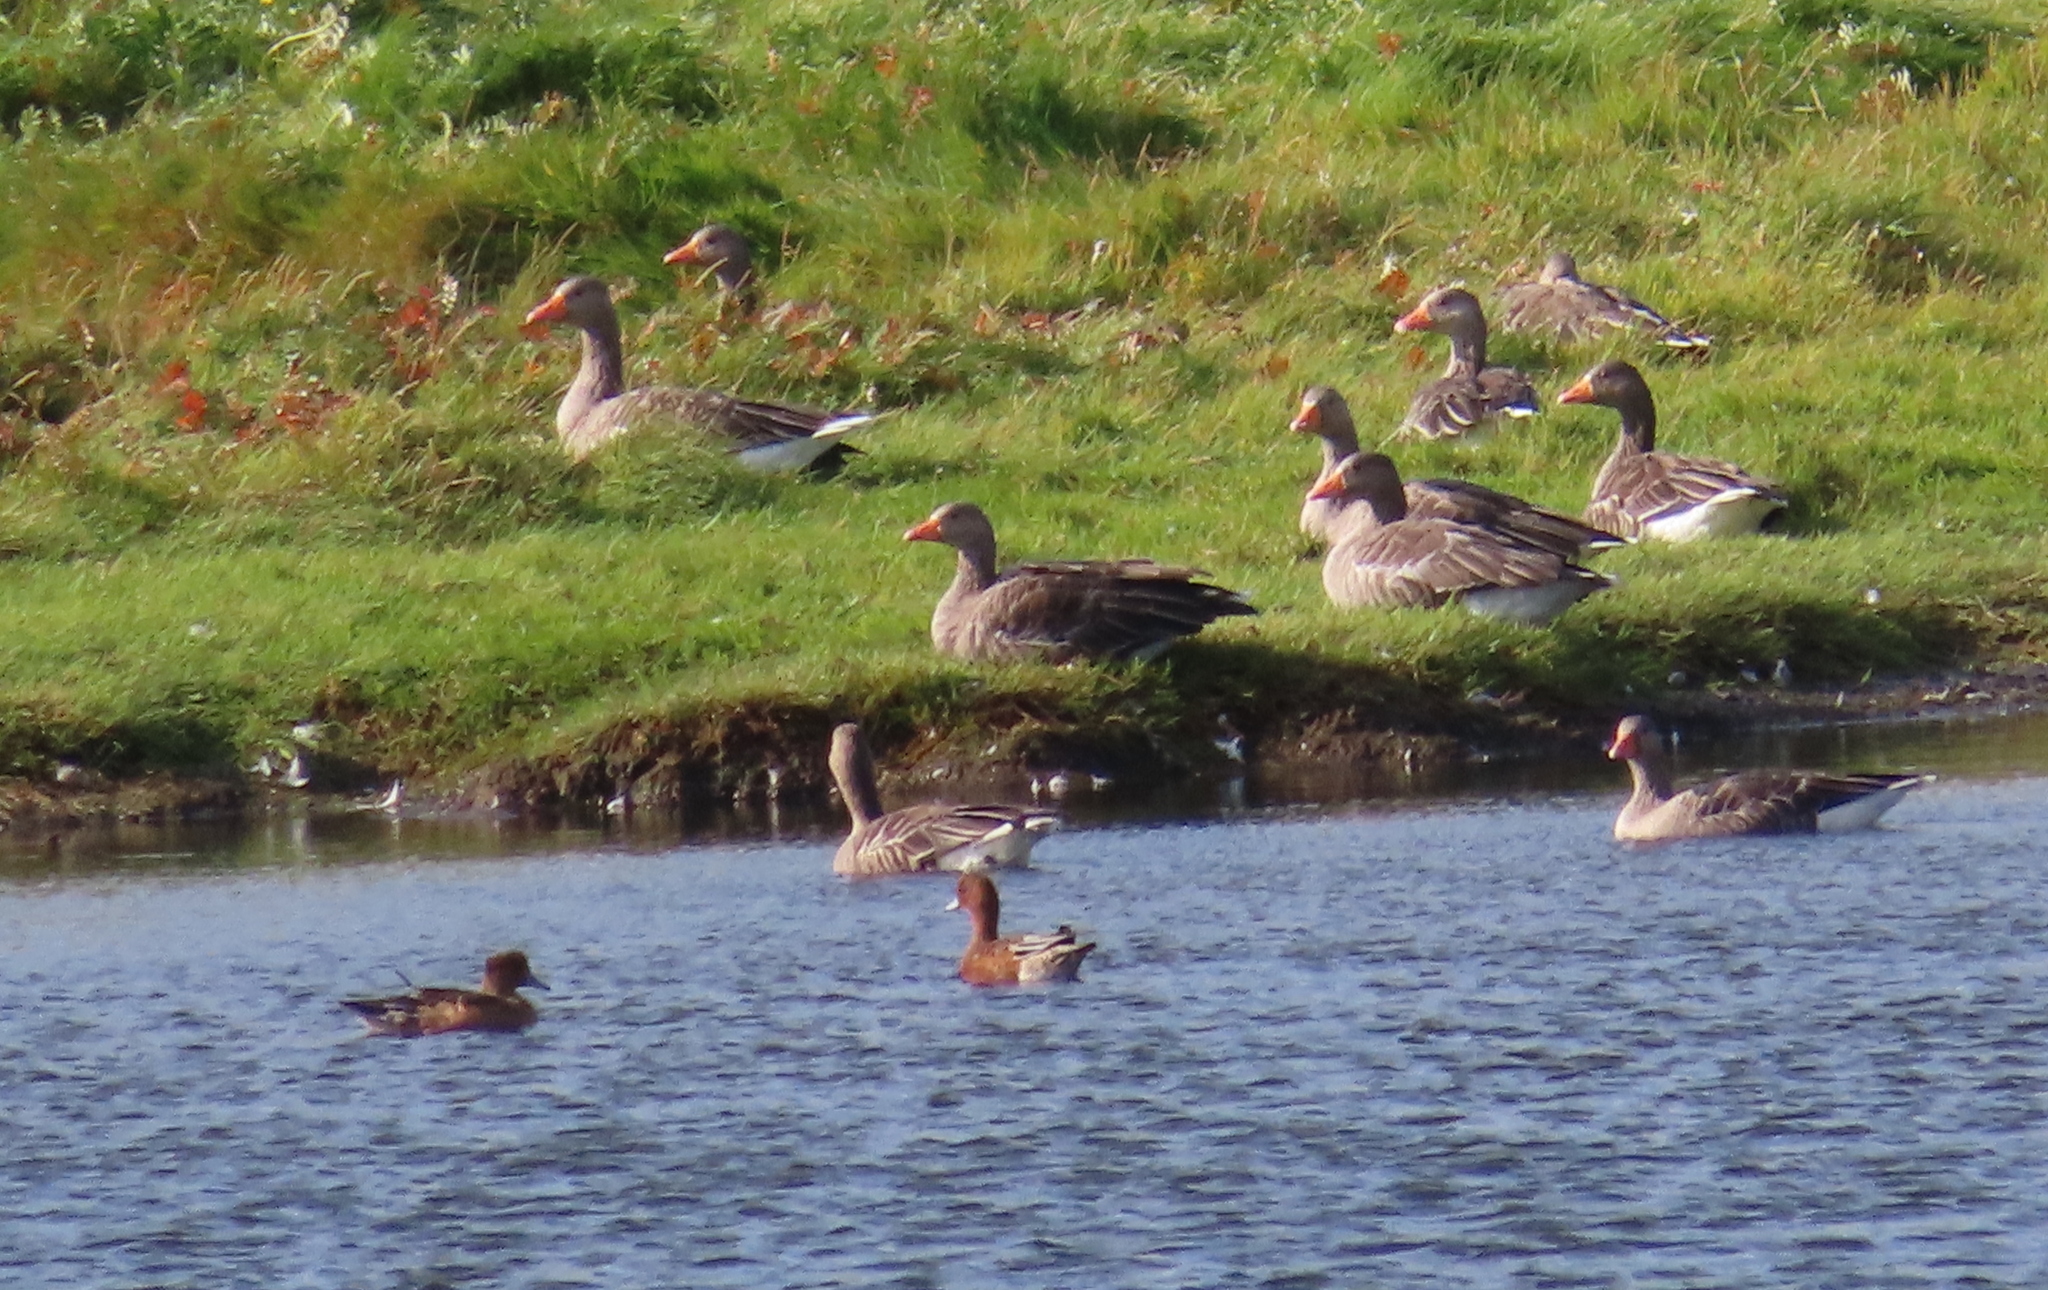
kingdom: Animalia
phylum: Chordata
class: Aves
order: Anseriformes
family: Anatidae
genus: Mareca
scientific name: Mareca penelope
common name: Eurasian wigeon
